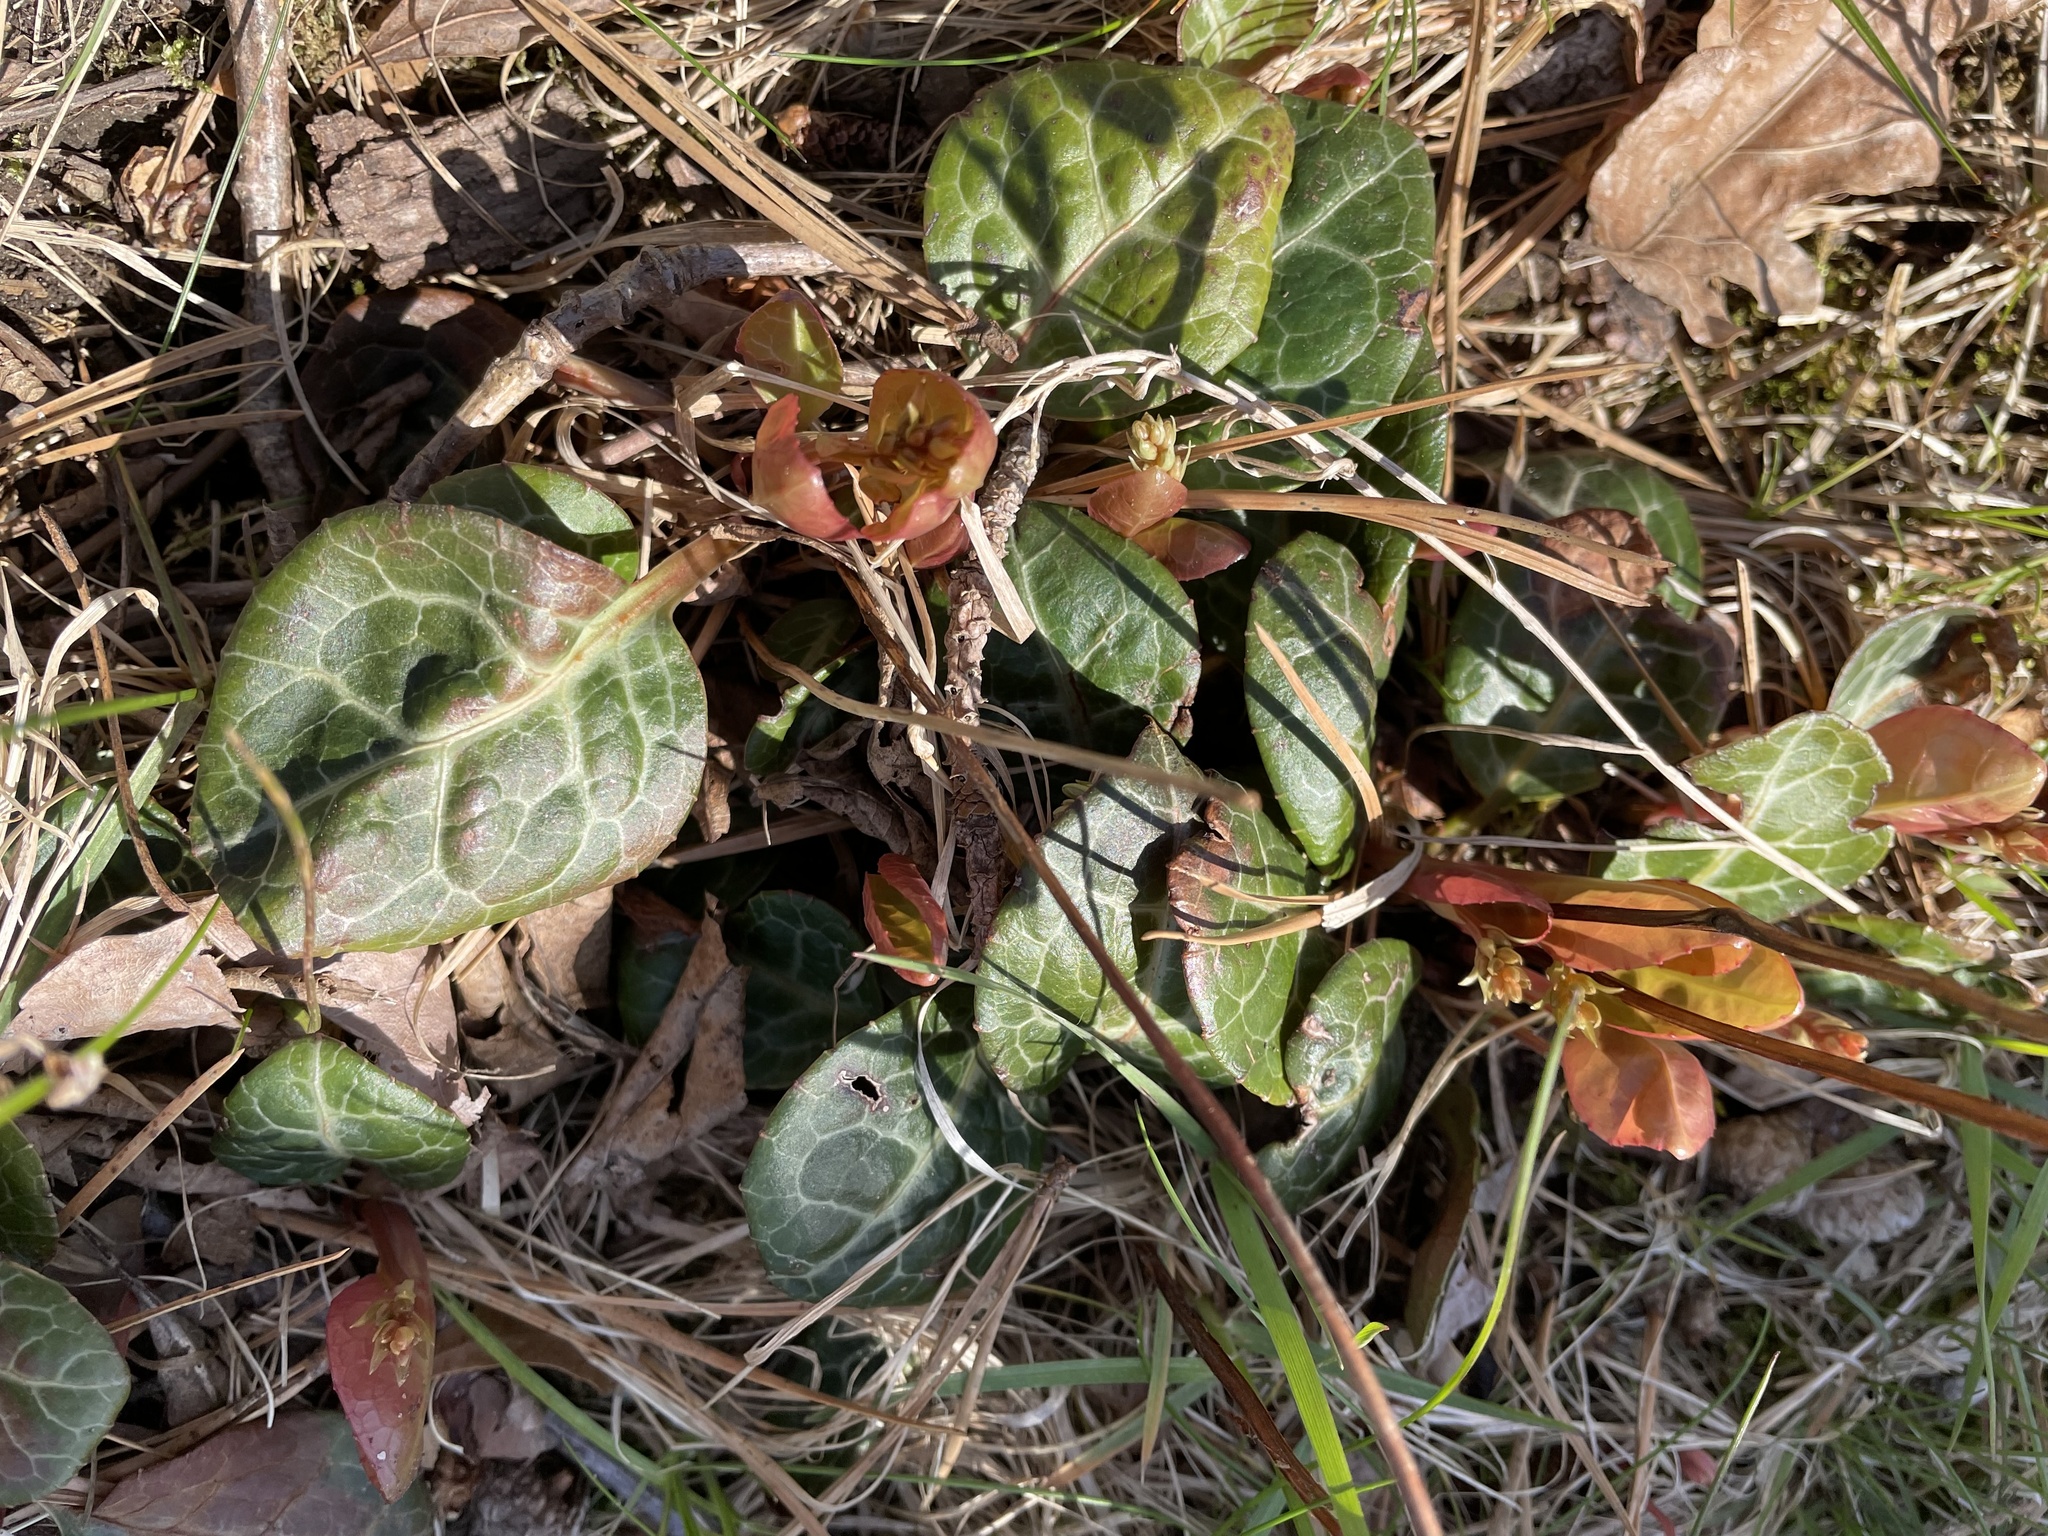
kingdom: Plantae
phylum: Tracheophyta
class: Magnoliopsida
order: Ericales
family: Ericaceae
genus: Pyrola
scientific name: Pyrola americana
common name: American wintergreen
